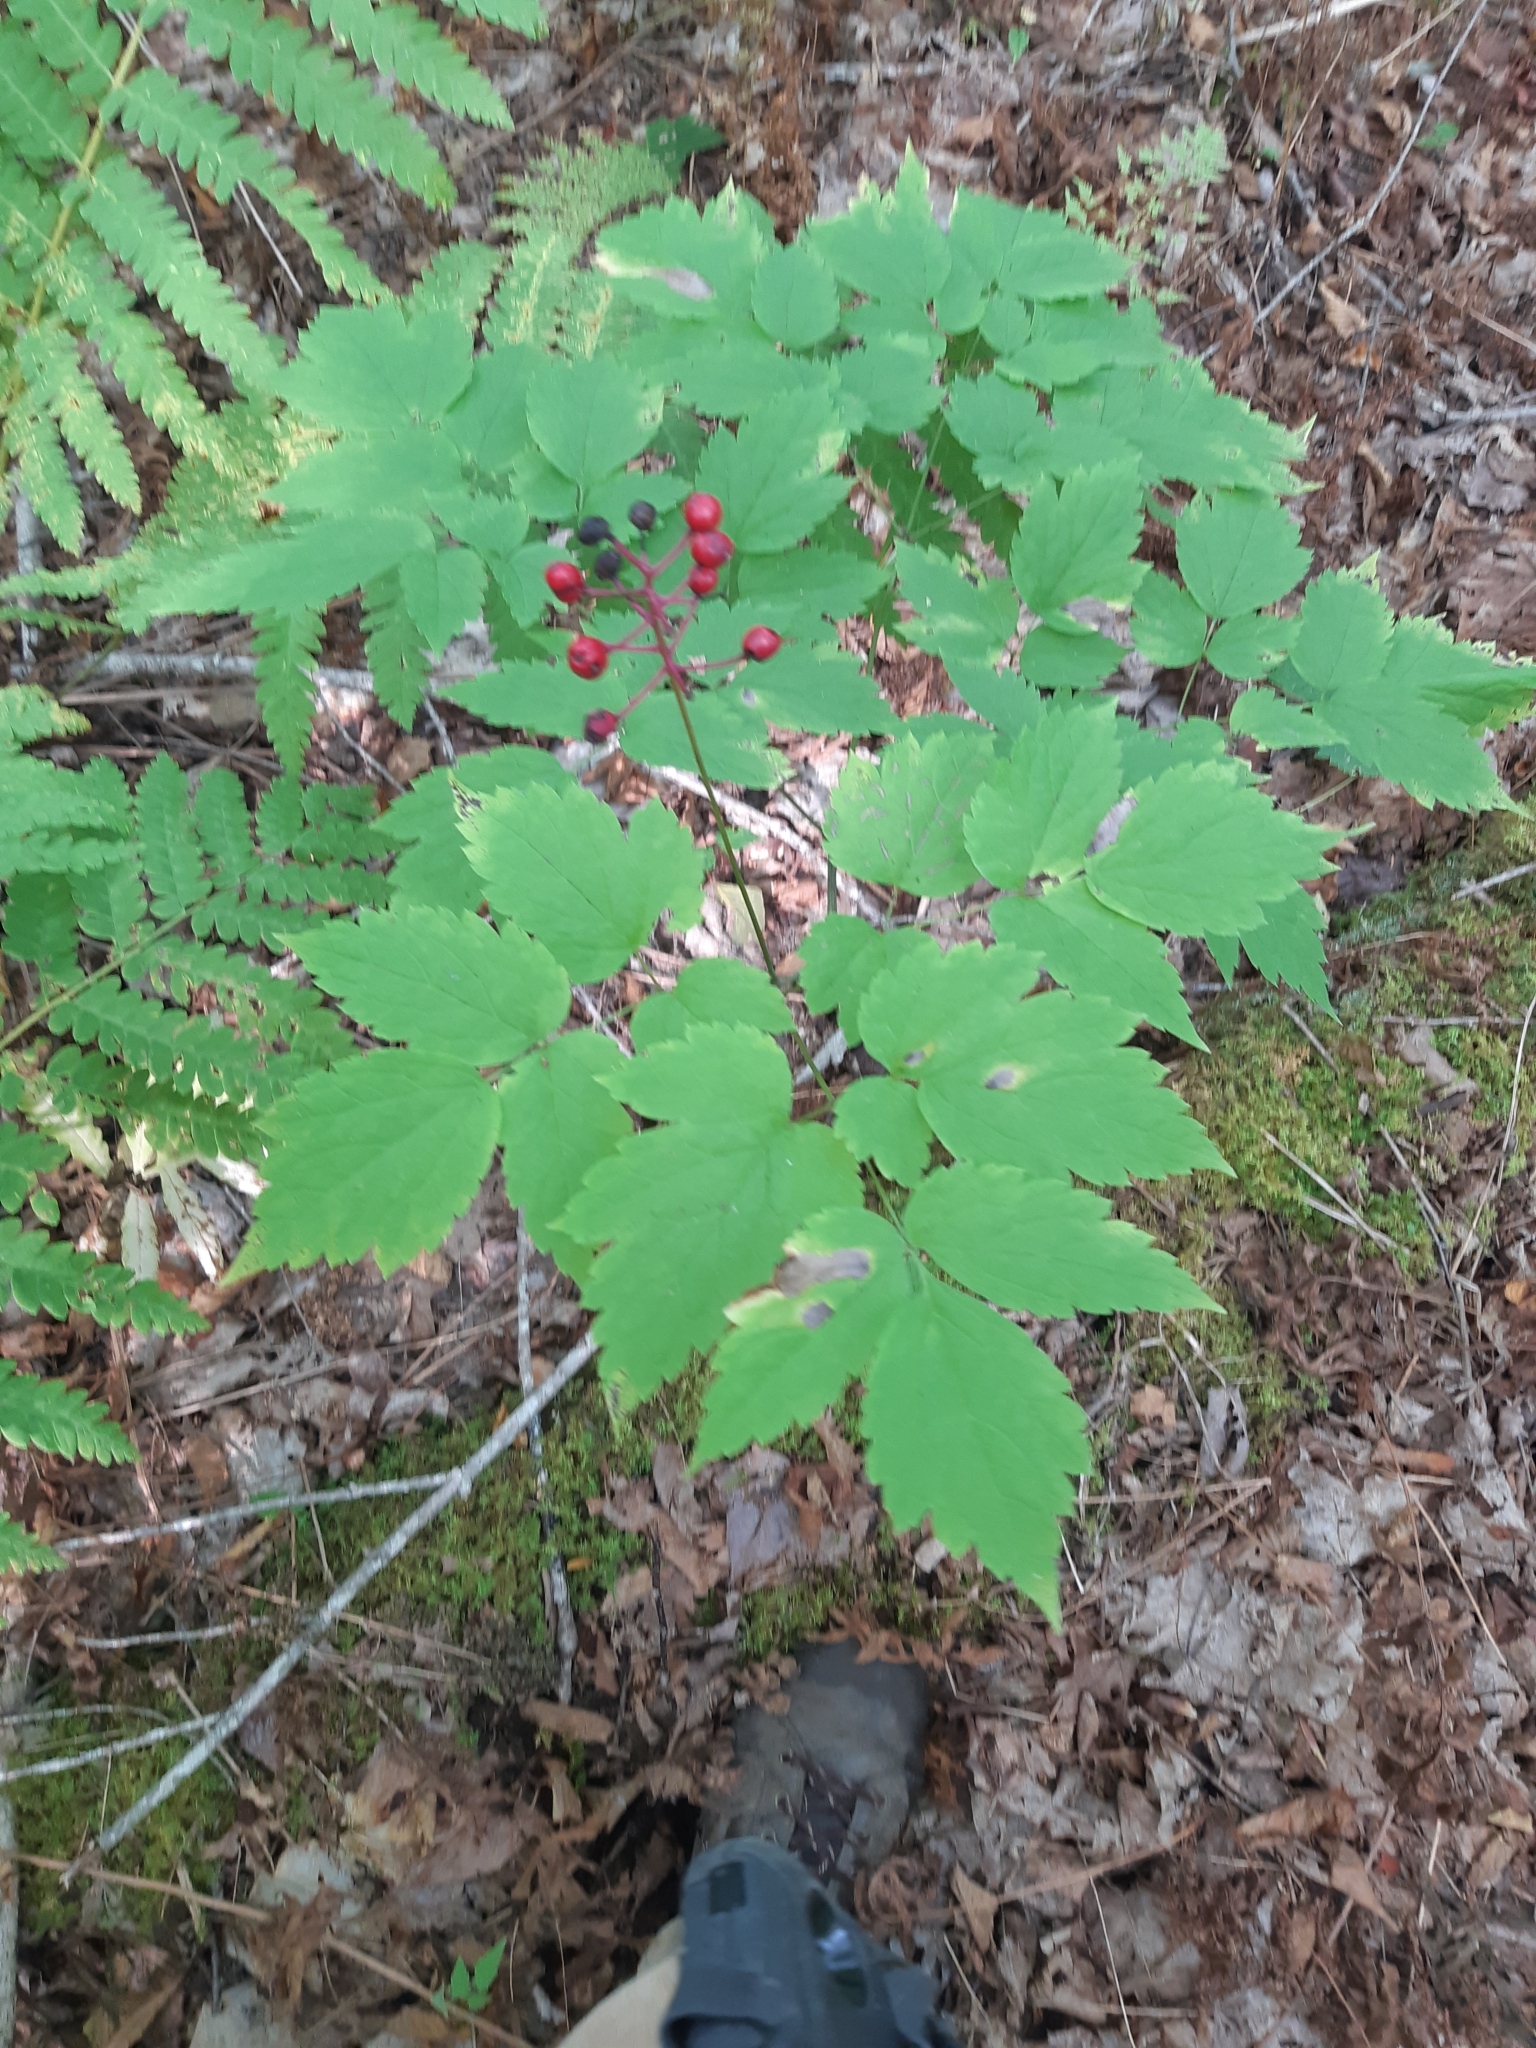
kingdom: Plantae
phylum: Tracheophyta
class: Magnoliopsida
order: Ranunculales
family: Ranunculaceae
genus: Actaea
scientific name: Actaea rubra
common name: Red baneberry
